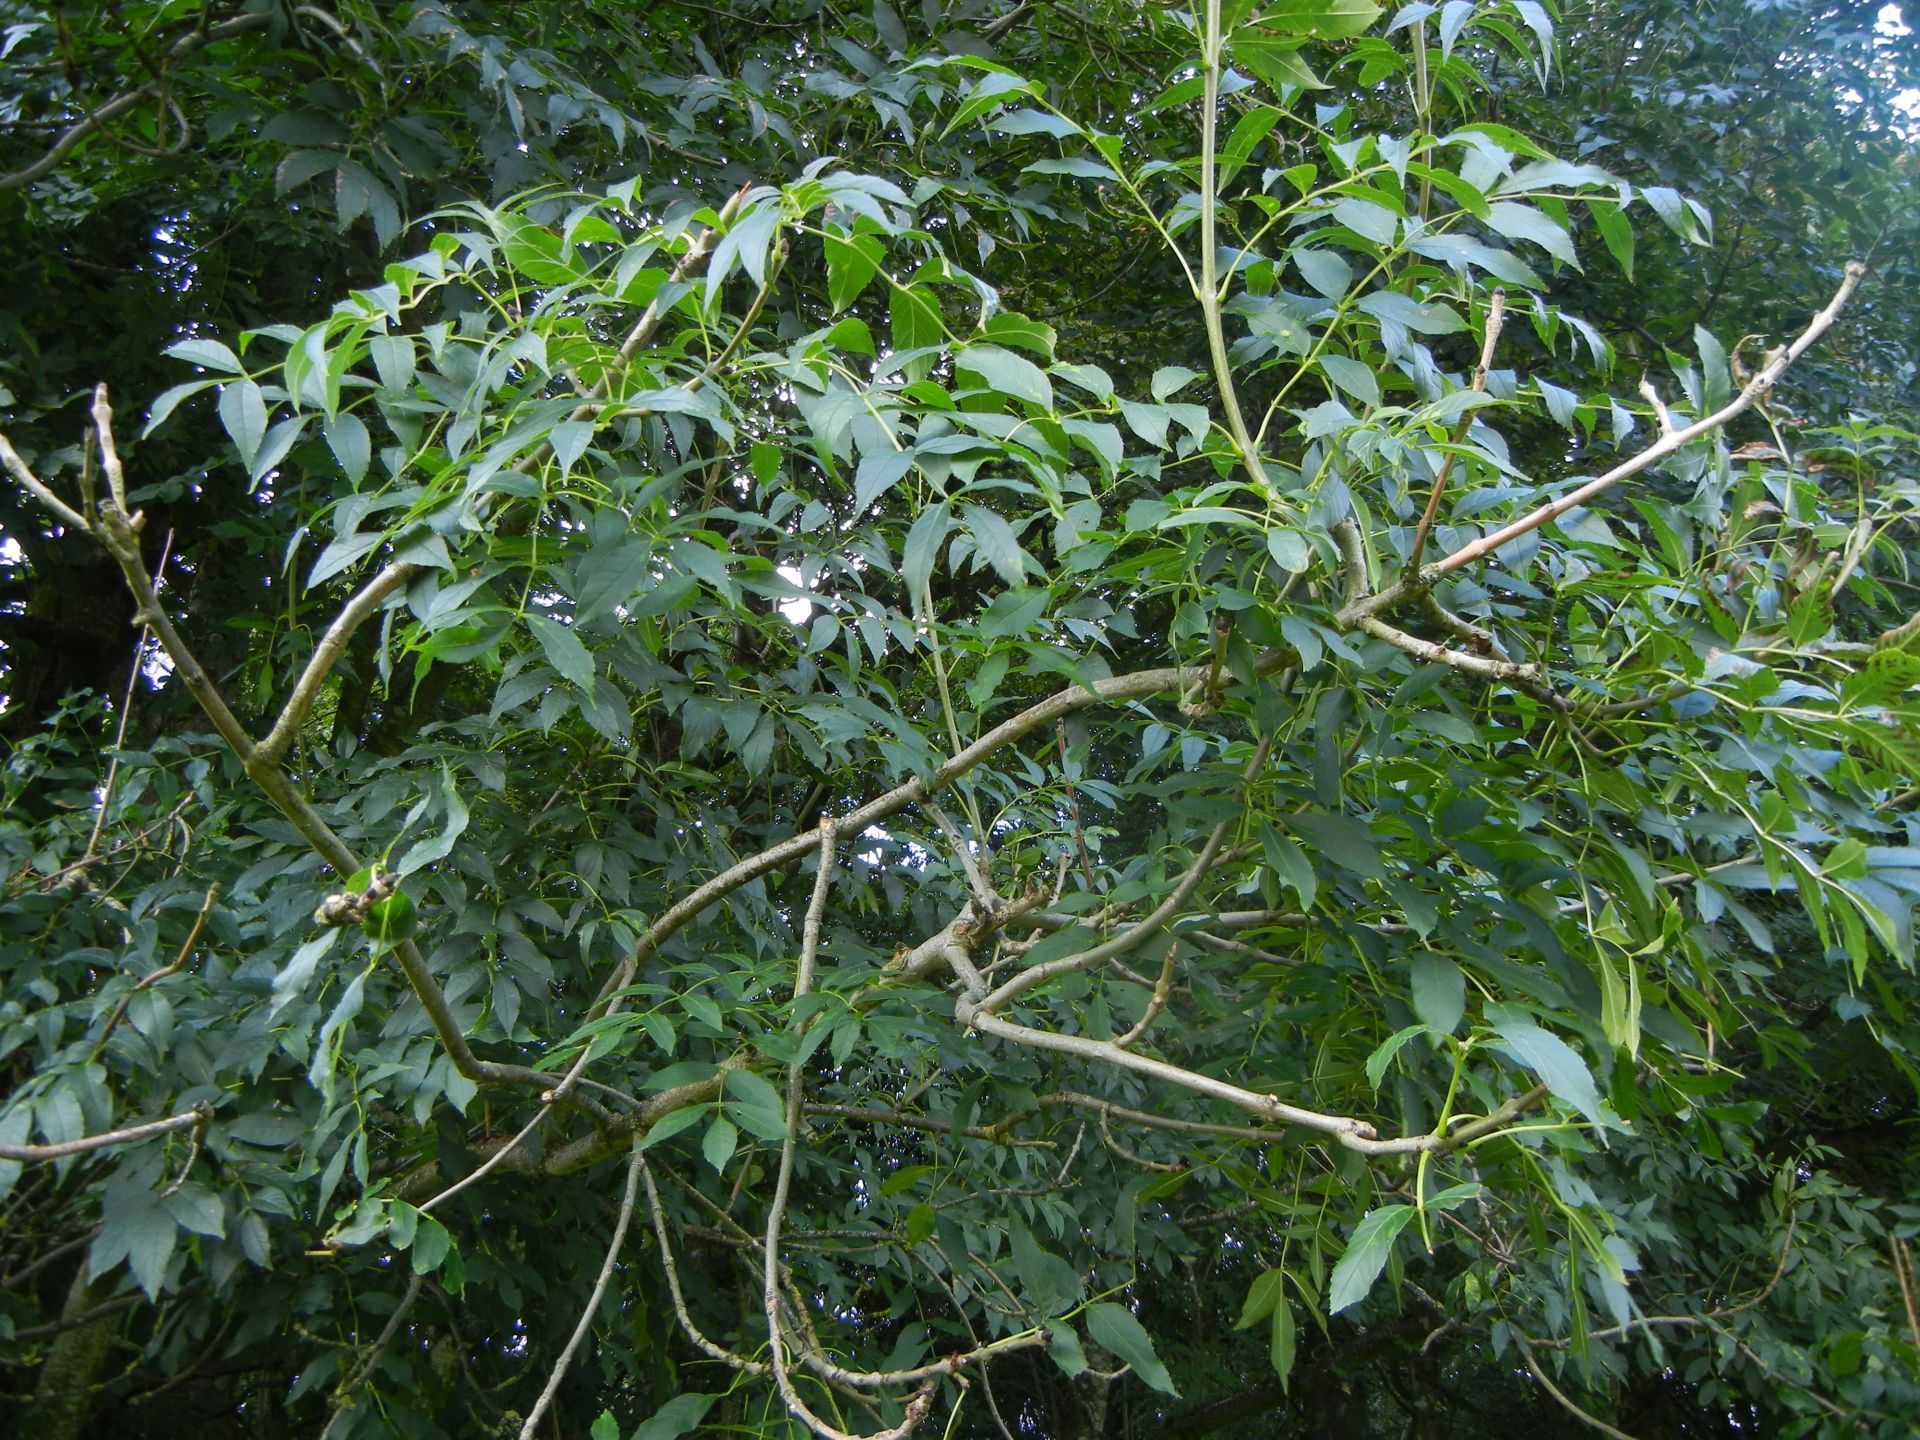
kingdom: Plantae
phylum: Tracheophyta
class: Magnoliopsida
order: Lamiales
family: Oleaceae
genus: Fraxinus
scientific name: Fraxinus excelsior
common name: European ash
